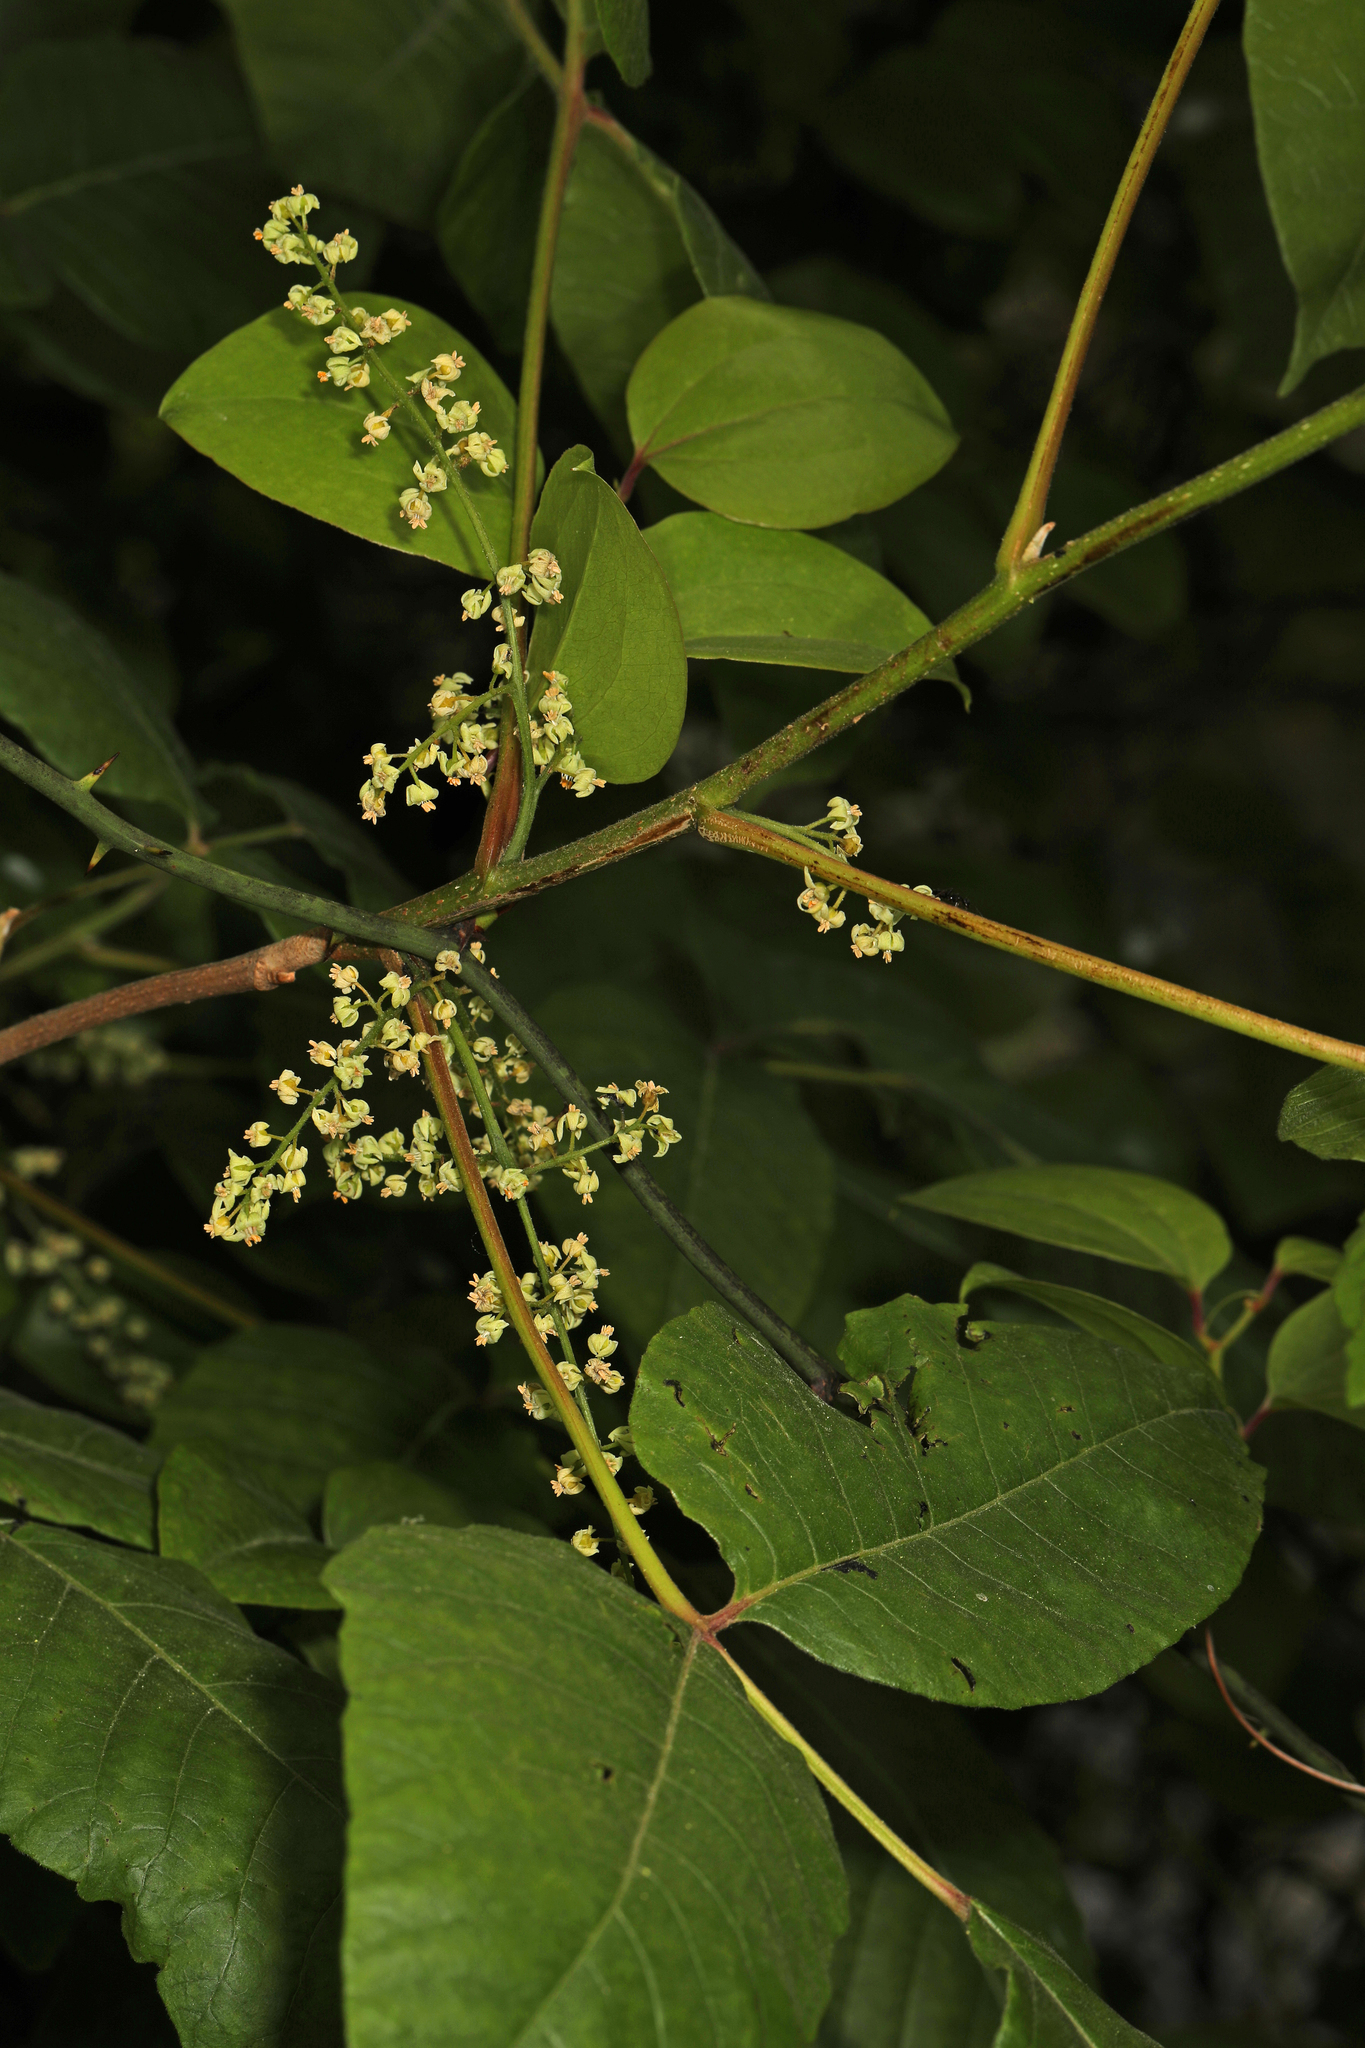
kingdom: Plantae
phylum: Tracheophyta
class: Magnoliopsida
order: Sapindales
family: Anacardiaceae
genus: Toxicodendron
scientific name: Toxicodendron radicans
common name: Poison ivy
